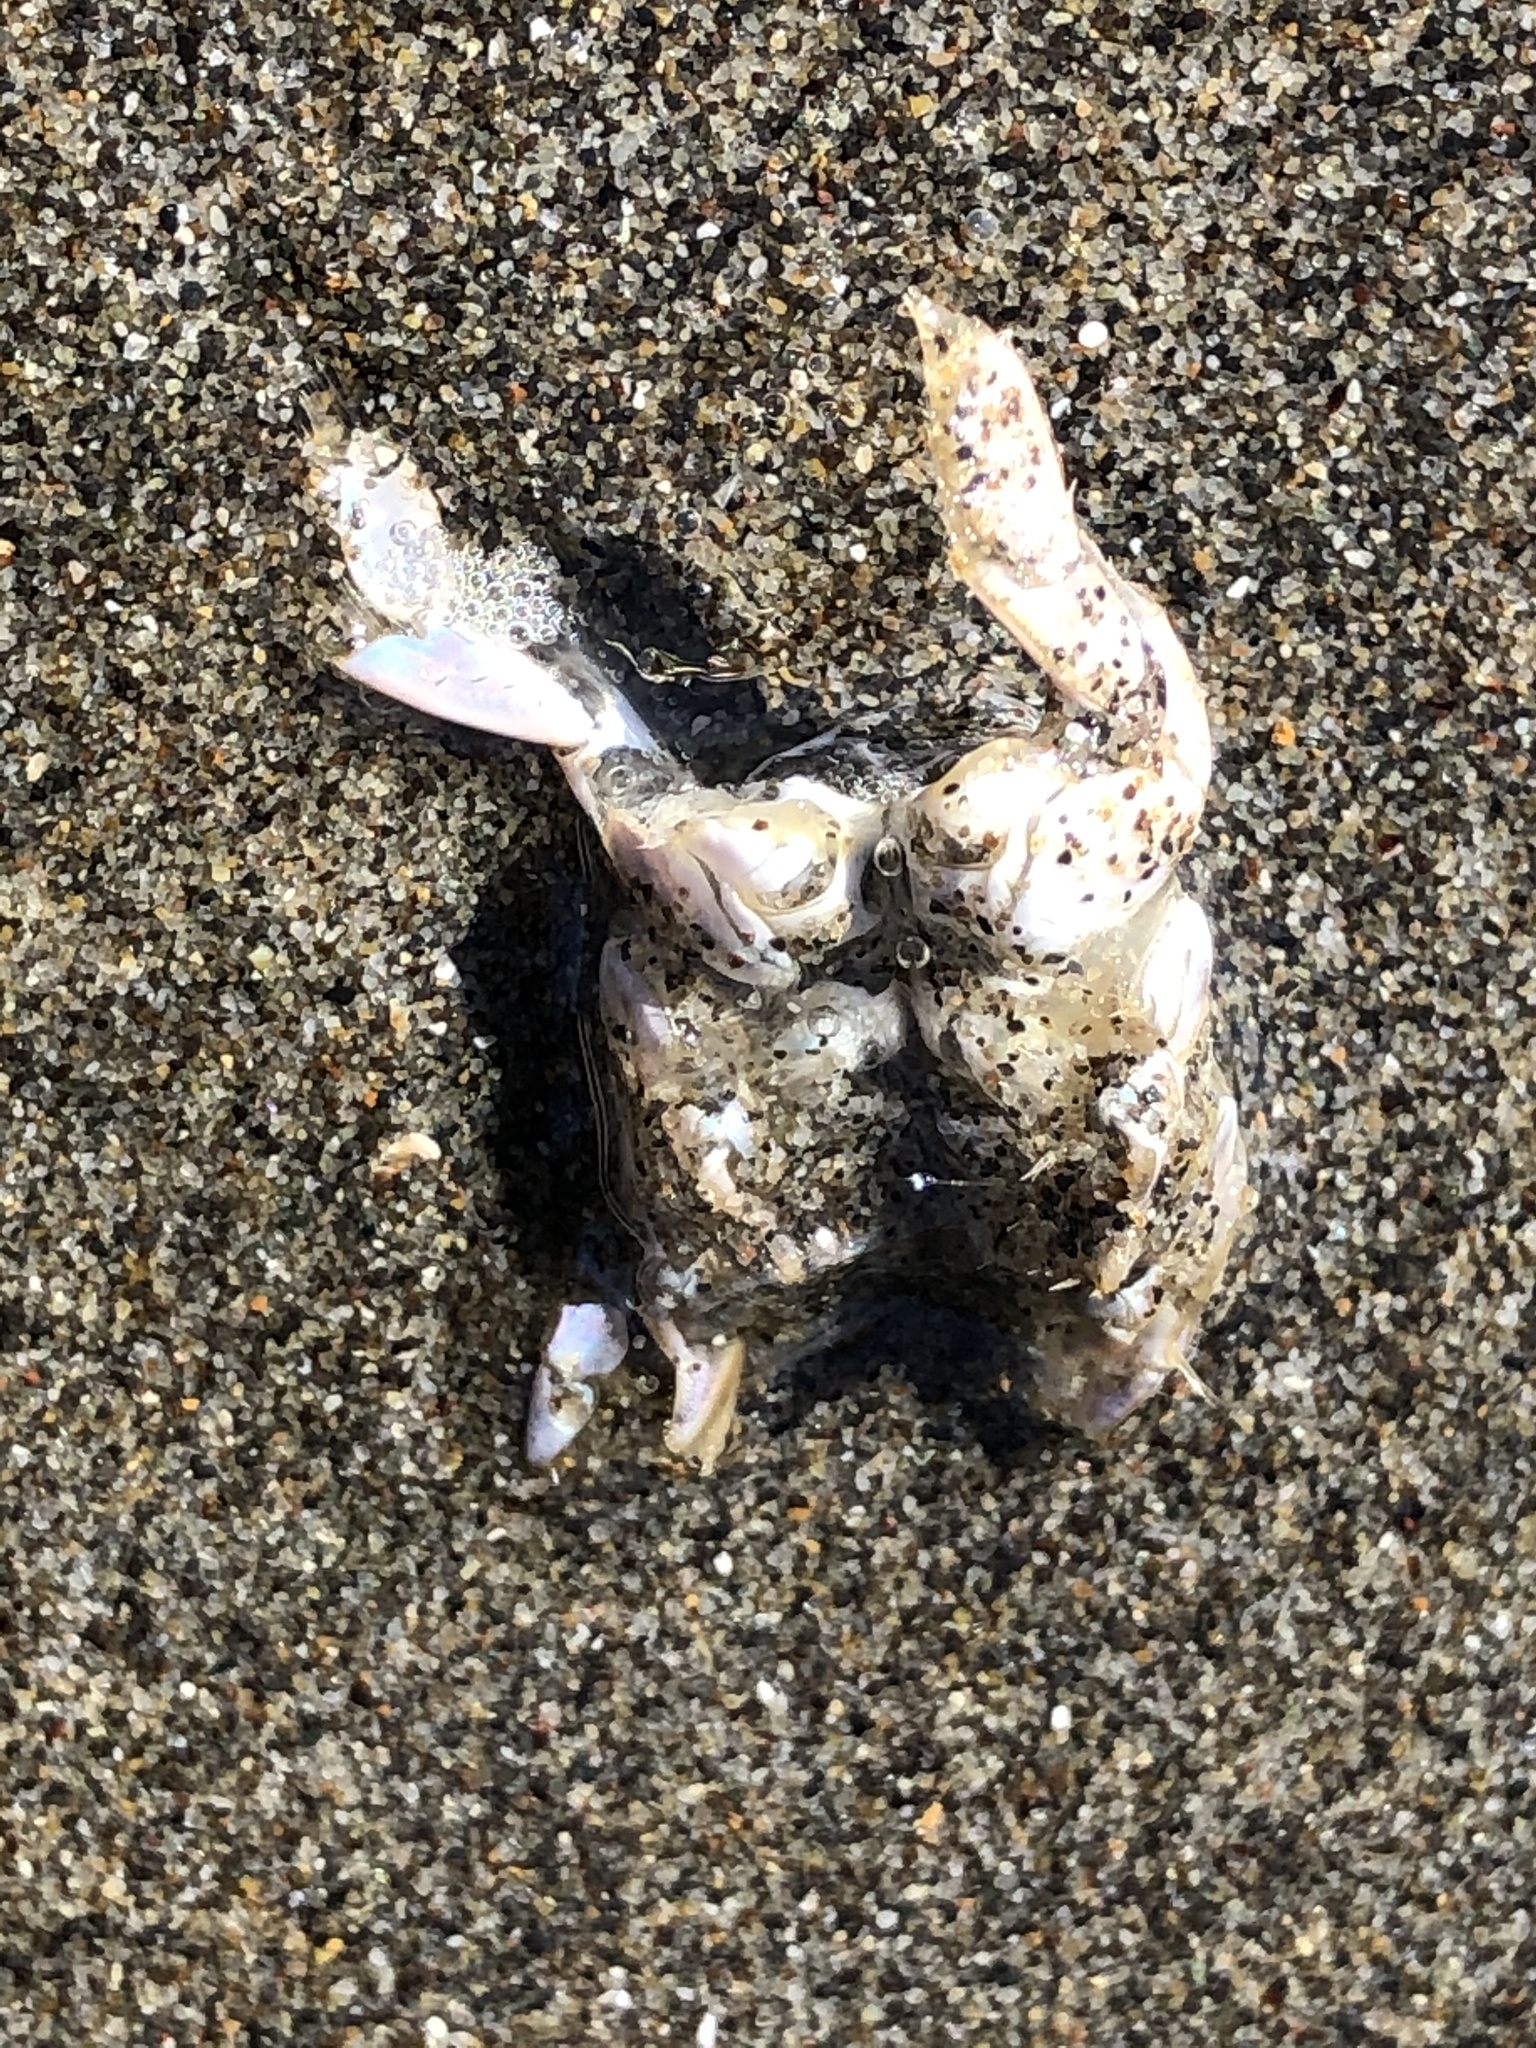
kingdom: Animalia
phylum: Arthropoda
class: Malacostraca
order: Decapoda
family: Hippidae
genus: Emerita
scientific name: Emerita analoga
